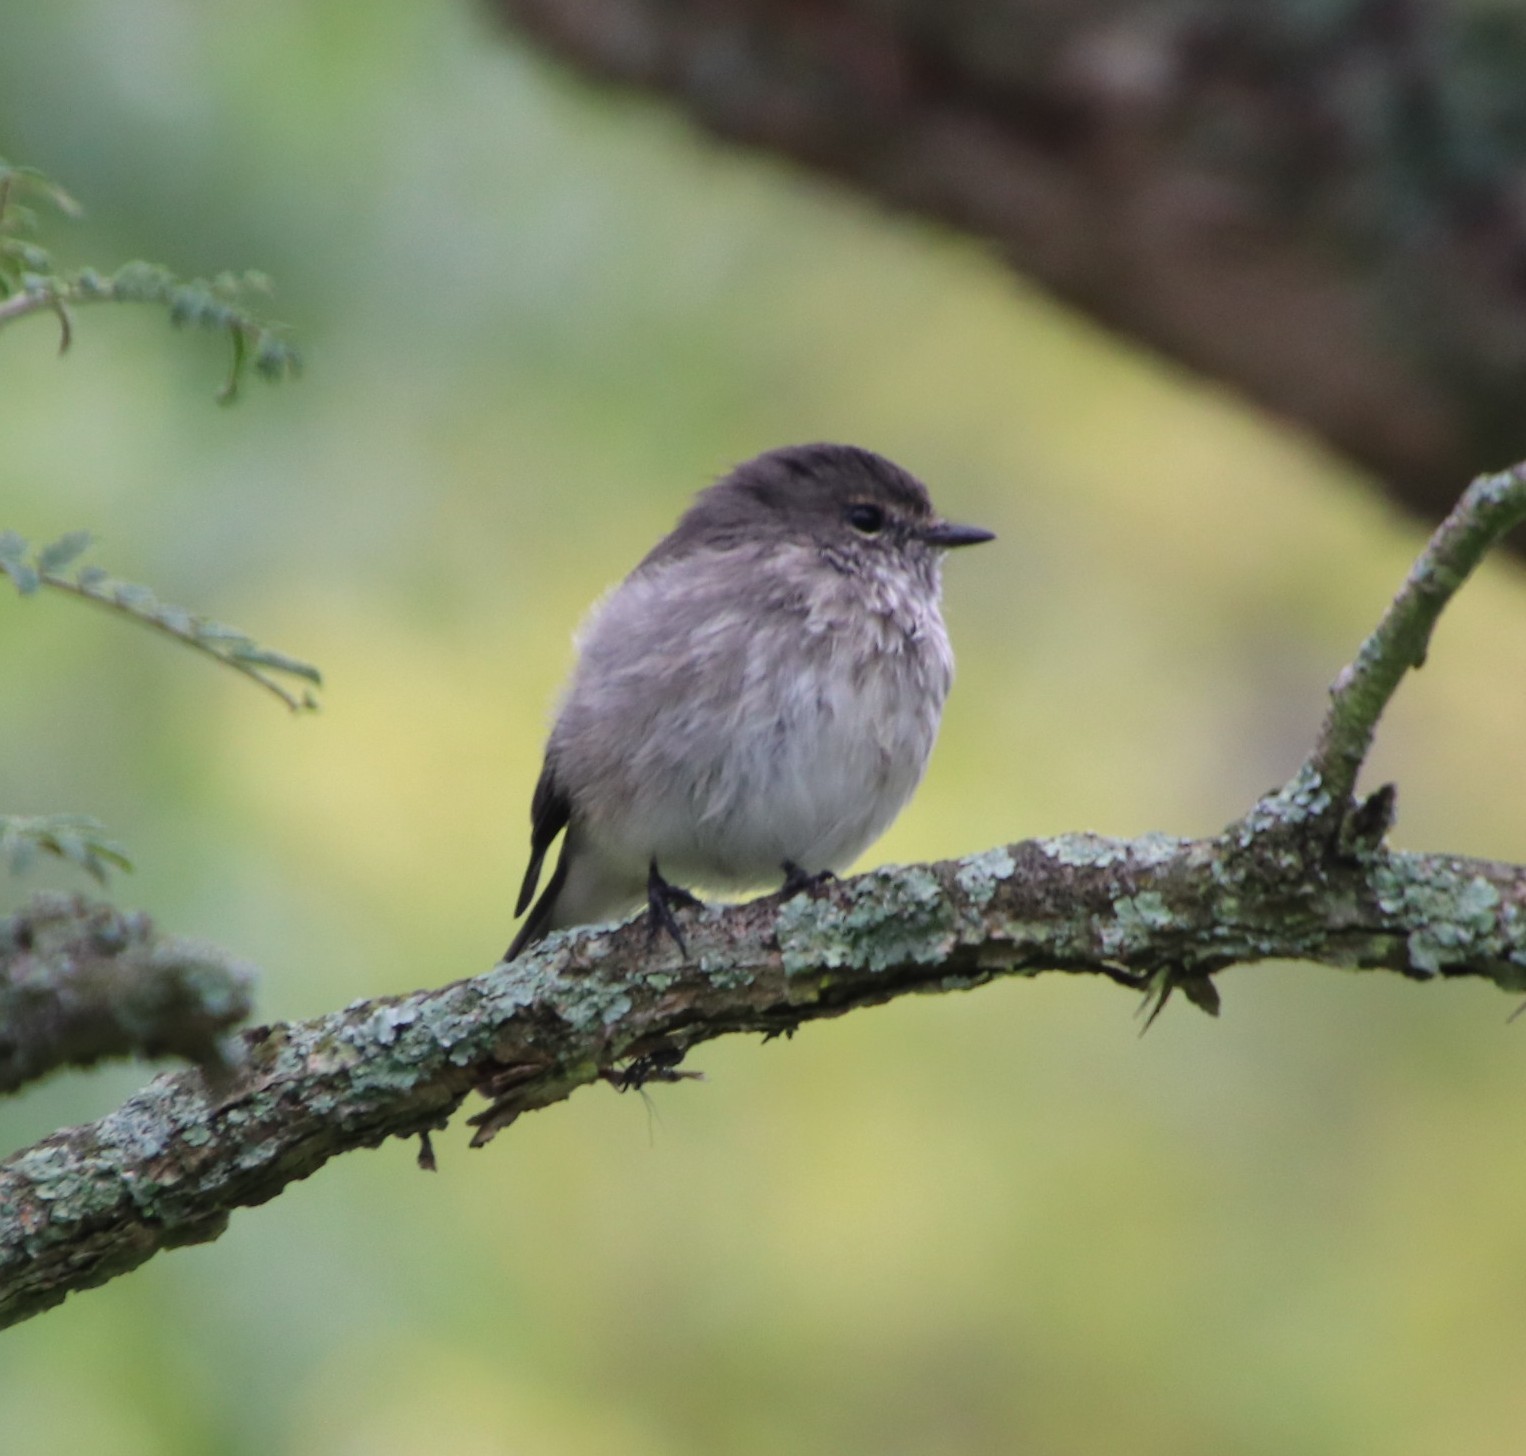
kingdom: Animalia
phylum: Chordata
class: Aves
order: Passeriformes
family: Muscicapidae
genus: Muscicapa
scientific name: Muscicapa adusta
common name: African dusky flycatcher
